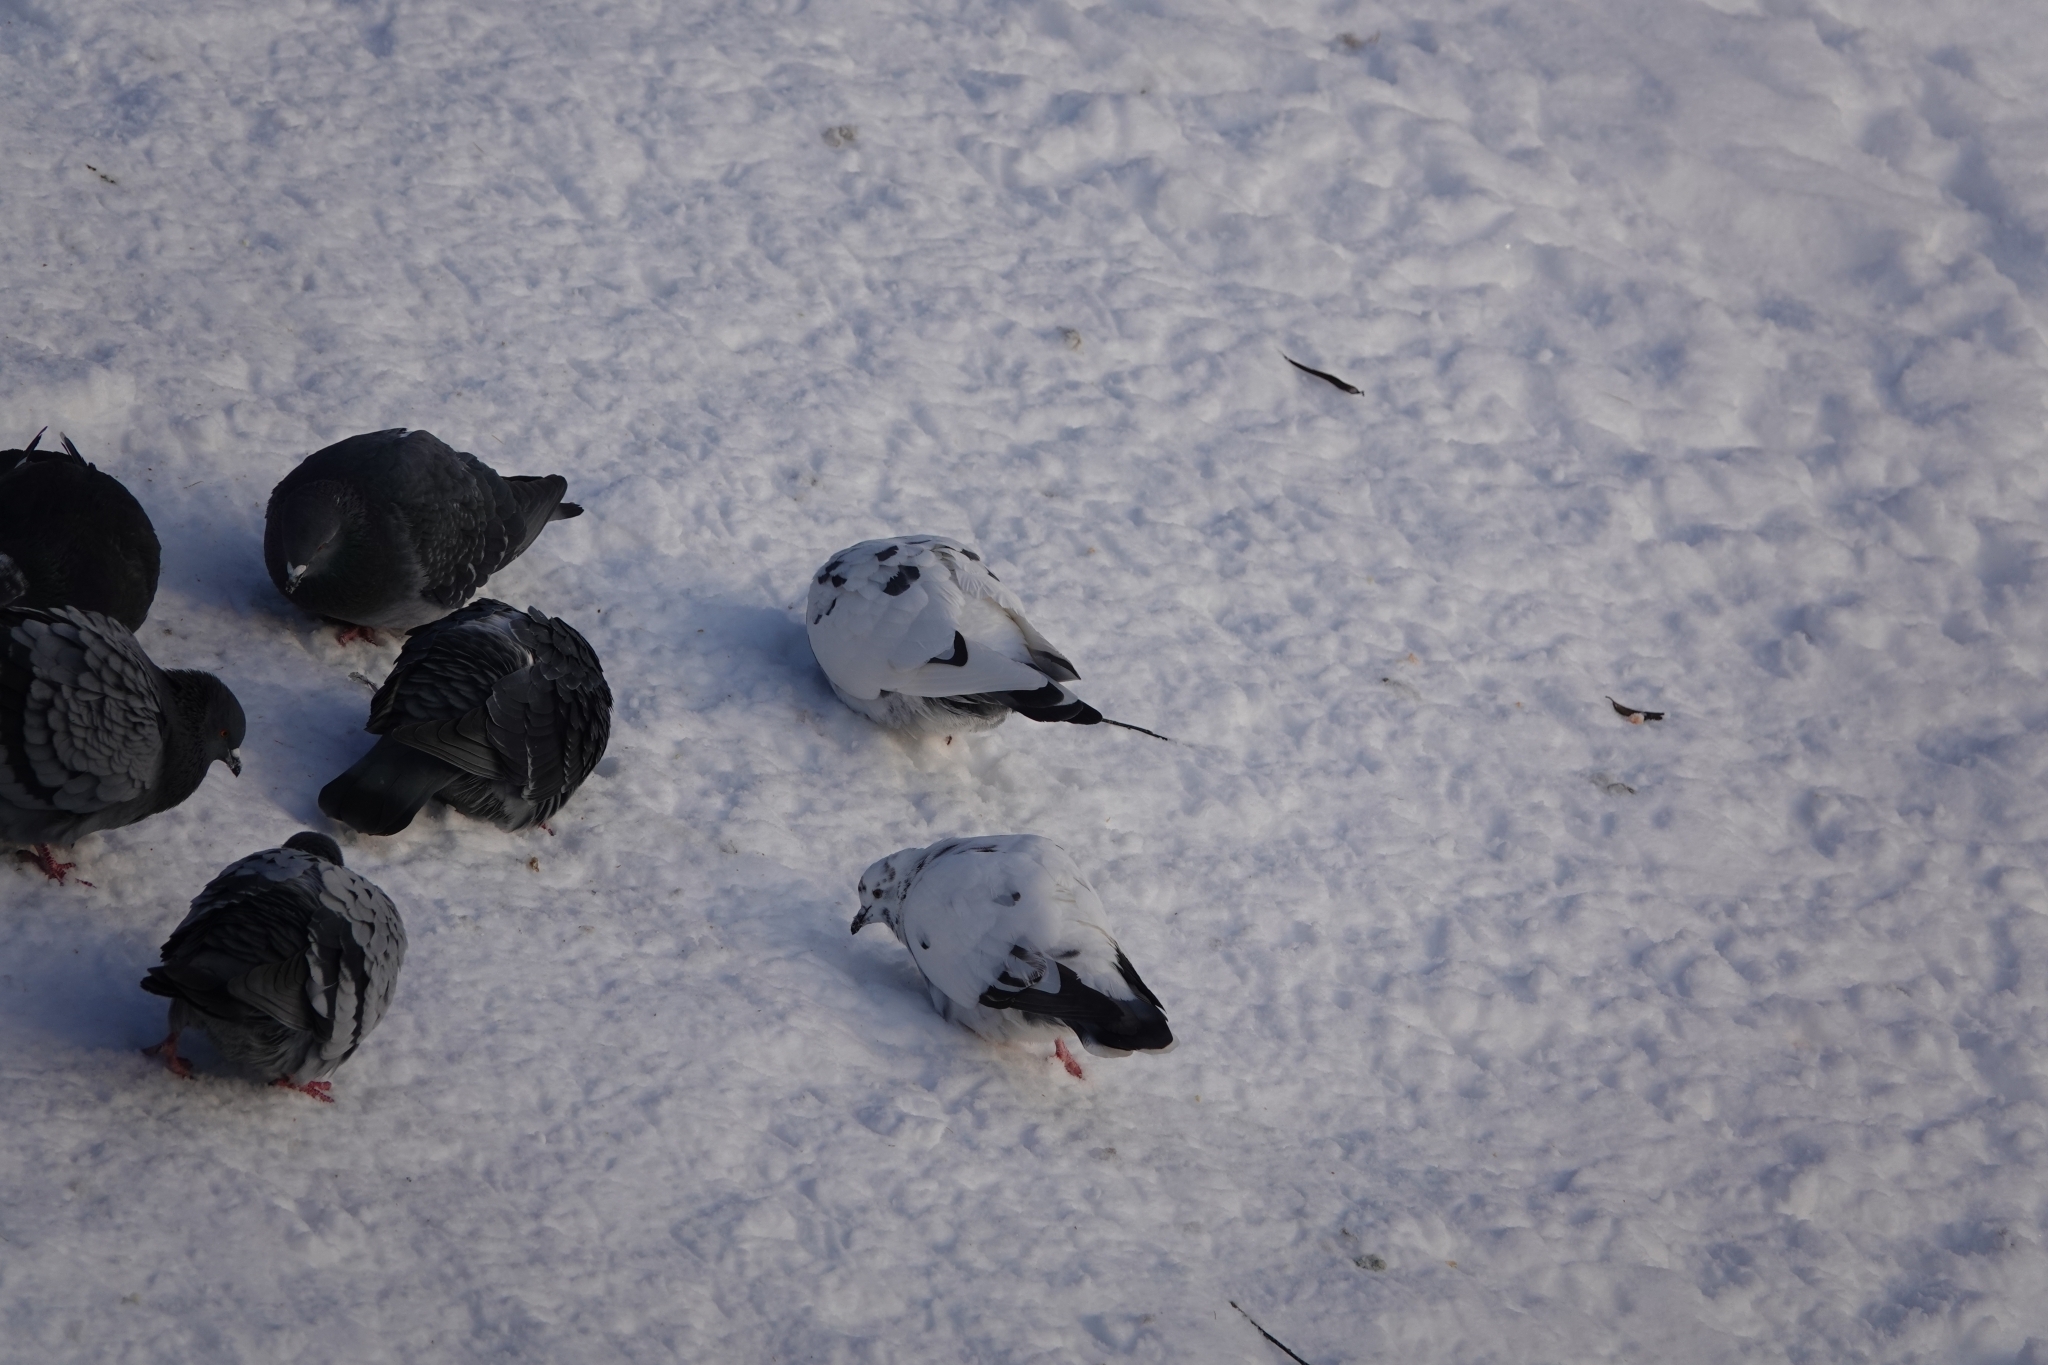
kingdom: Animalia
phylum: Chordata
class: Aves
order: Columbiformes
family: Columbidae
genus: Columba
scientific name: Columba livia
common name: Rock pigeon
